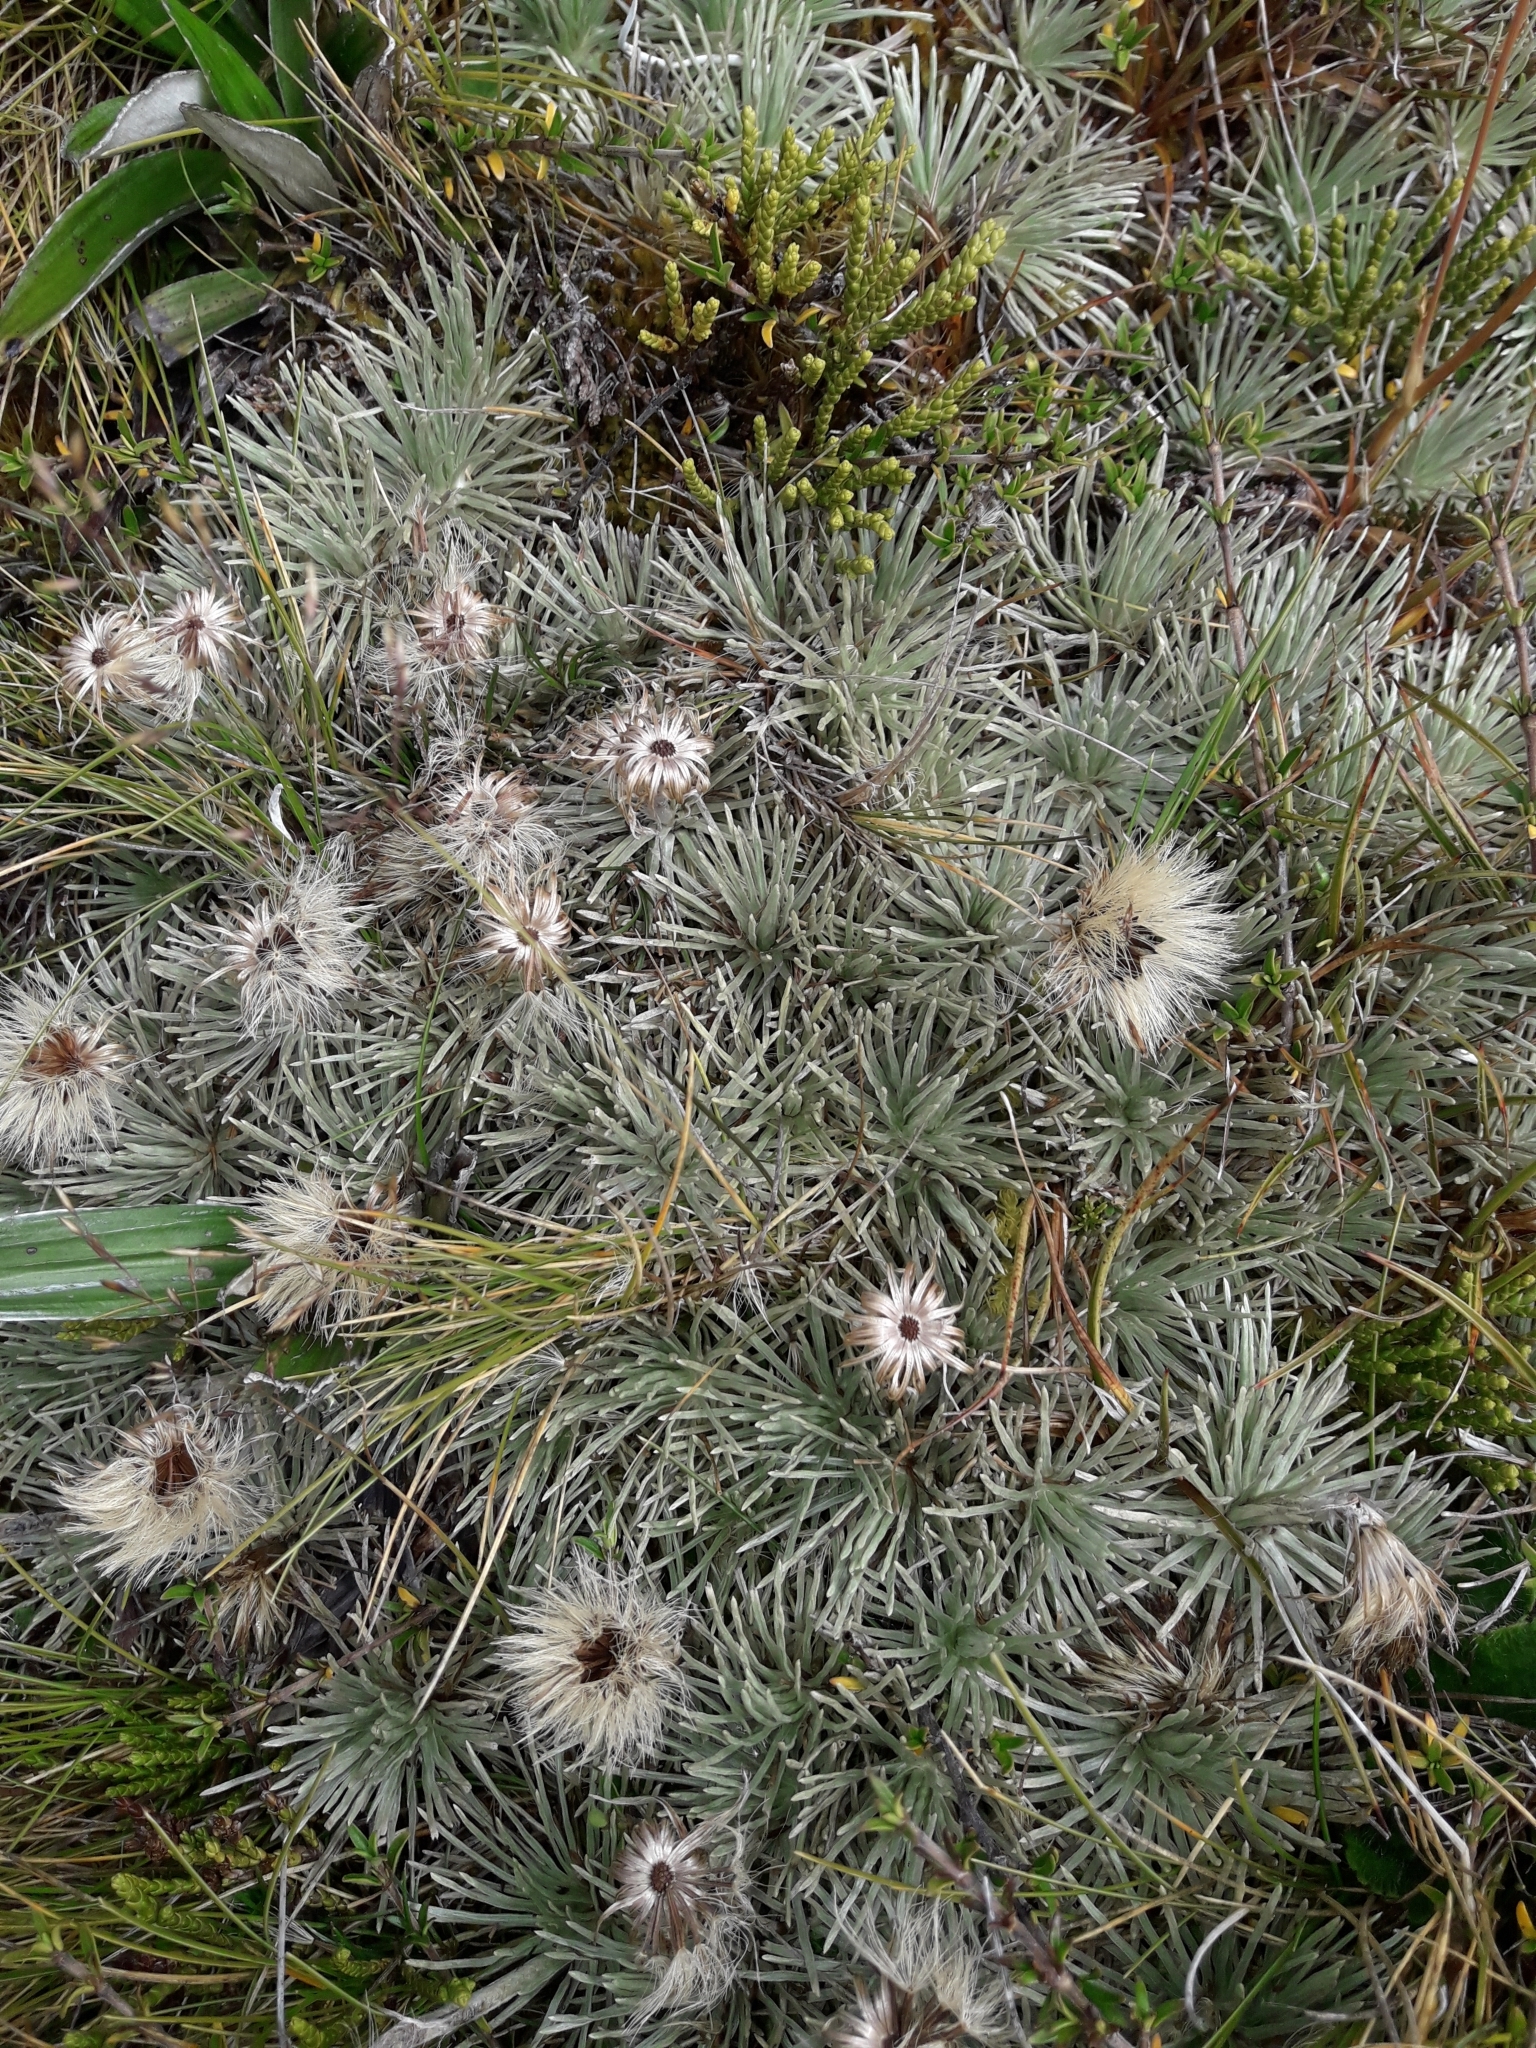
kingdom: Plantae
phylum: Tracheophyta
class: Magnoliopsida
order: Asterales
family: Asteraceae
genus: Celmisia
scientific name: Celmisia sessiliflora
